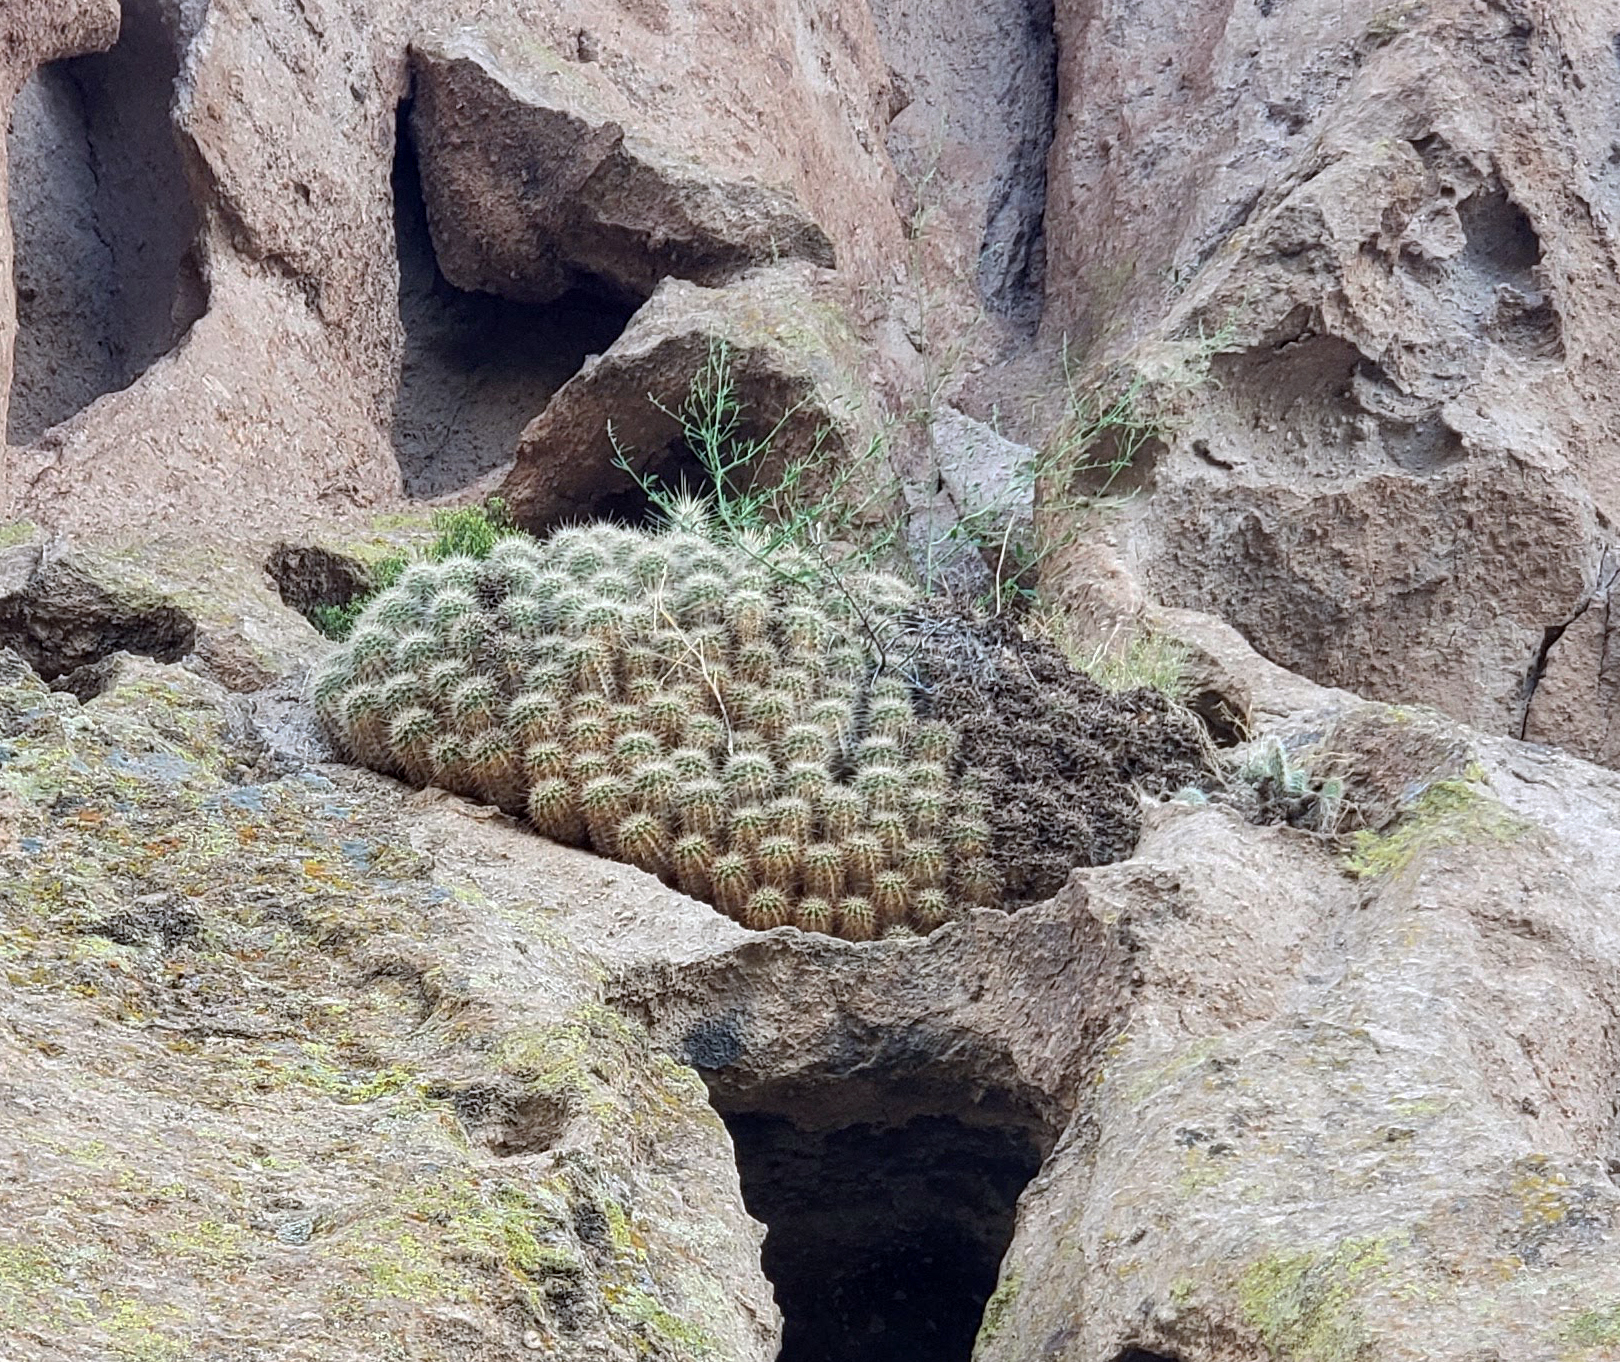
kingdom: Plantae
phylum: Tracheophyta
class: Magnoliopsida
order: Caryophyllales
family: Cactaceae
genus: Echinocereus
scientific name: Echinocereus coccineus
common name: Scarlet hedgehog cactus
